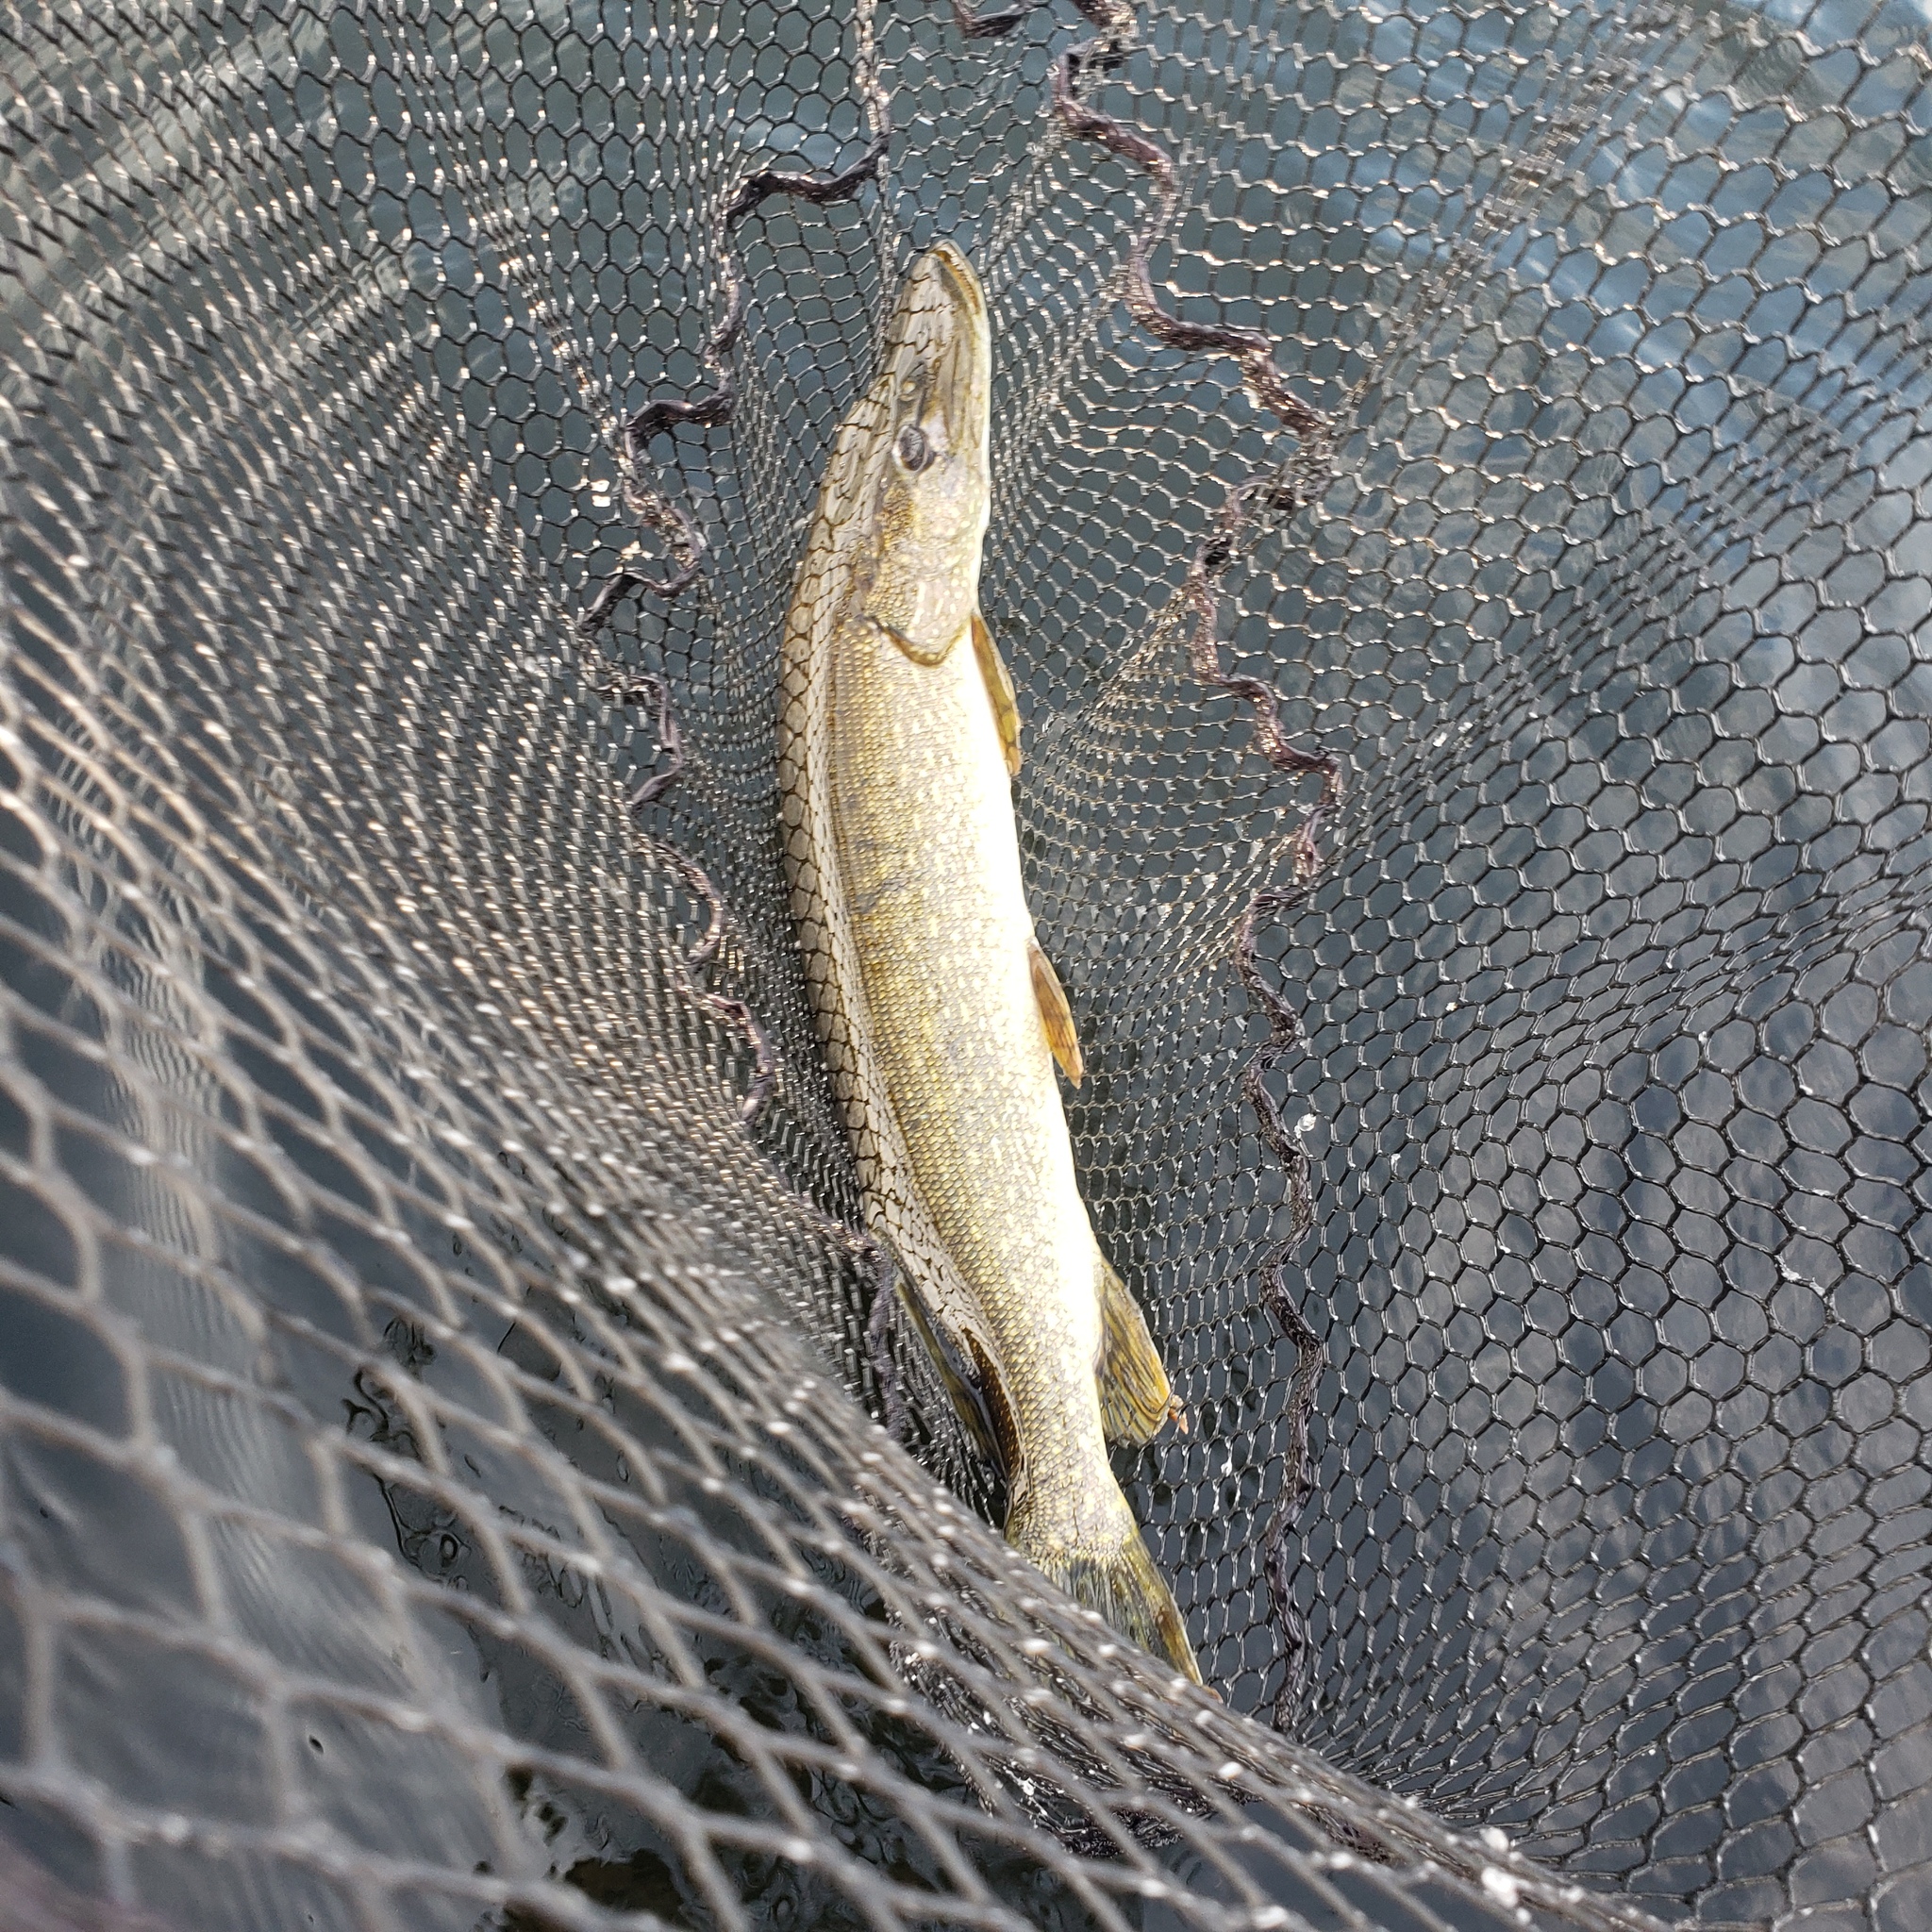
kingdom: Animalia
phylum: Chordata
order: Esociformes
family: Esocidae
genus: Esox
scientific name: Esox lucius
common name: Northern pike
